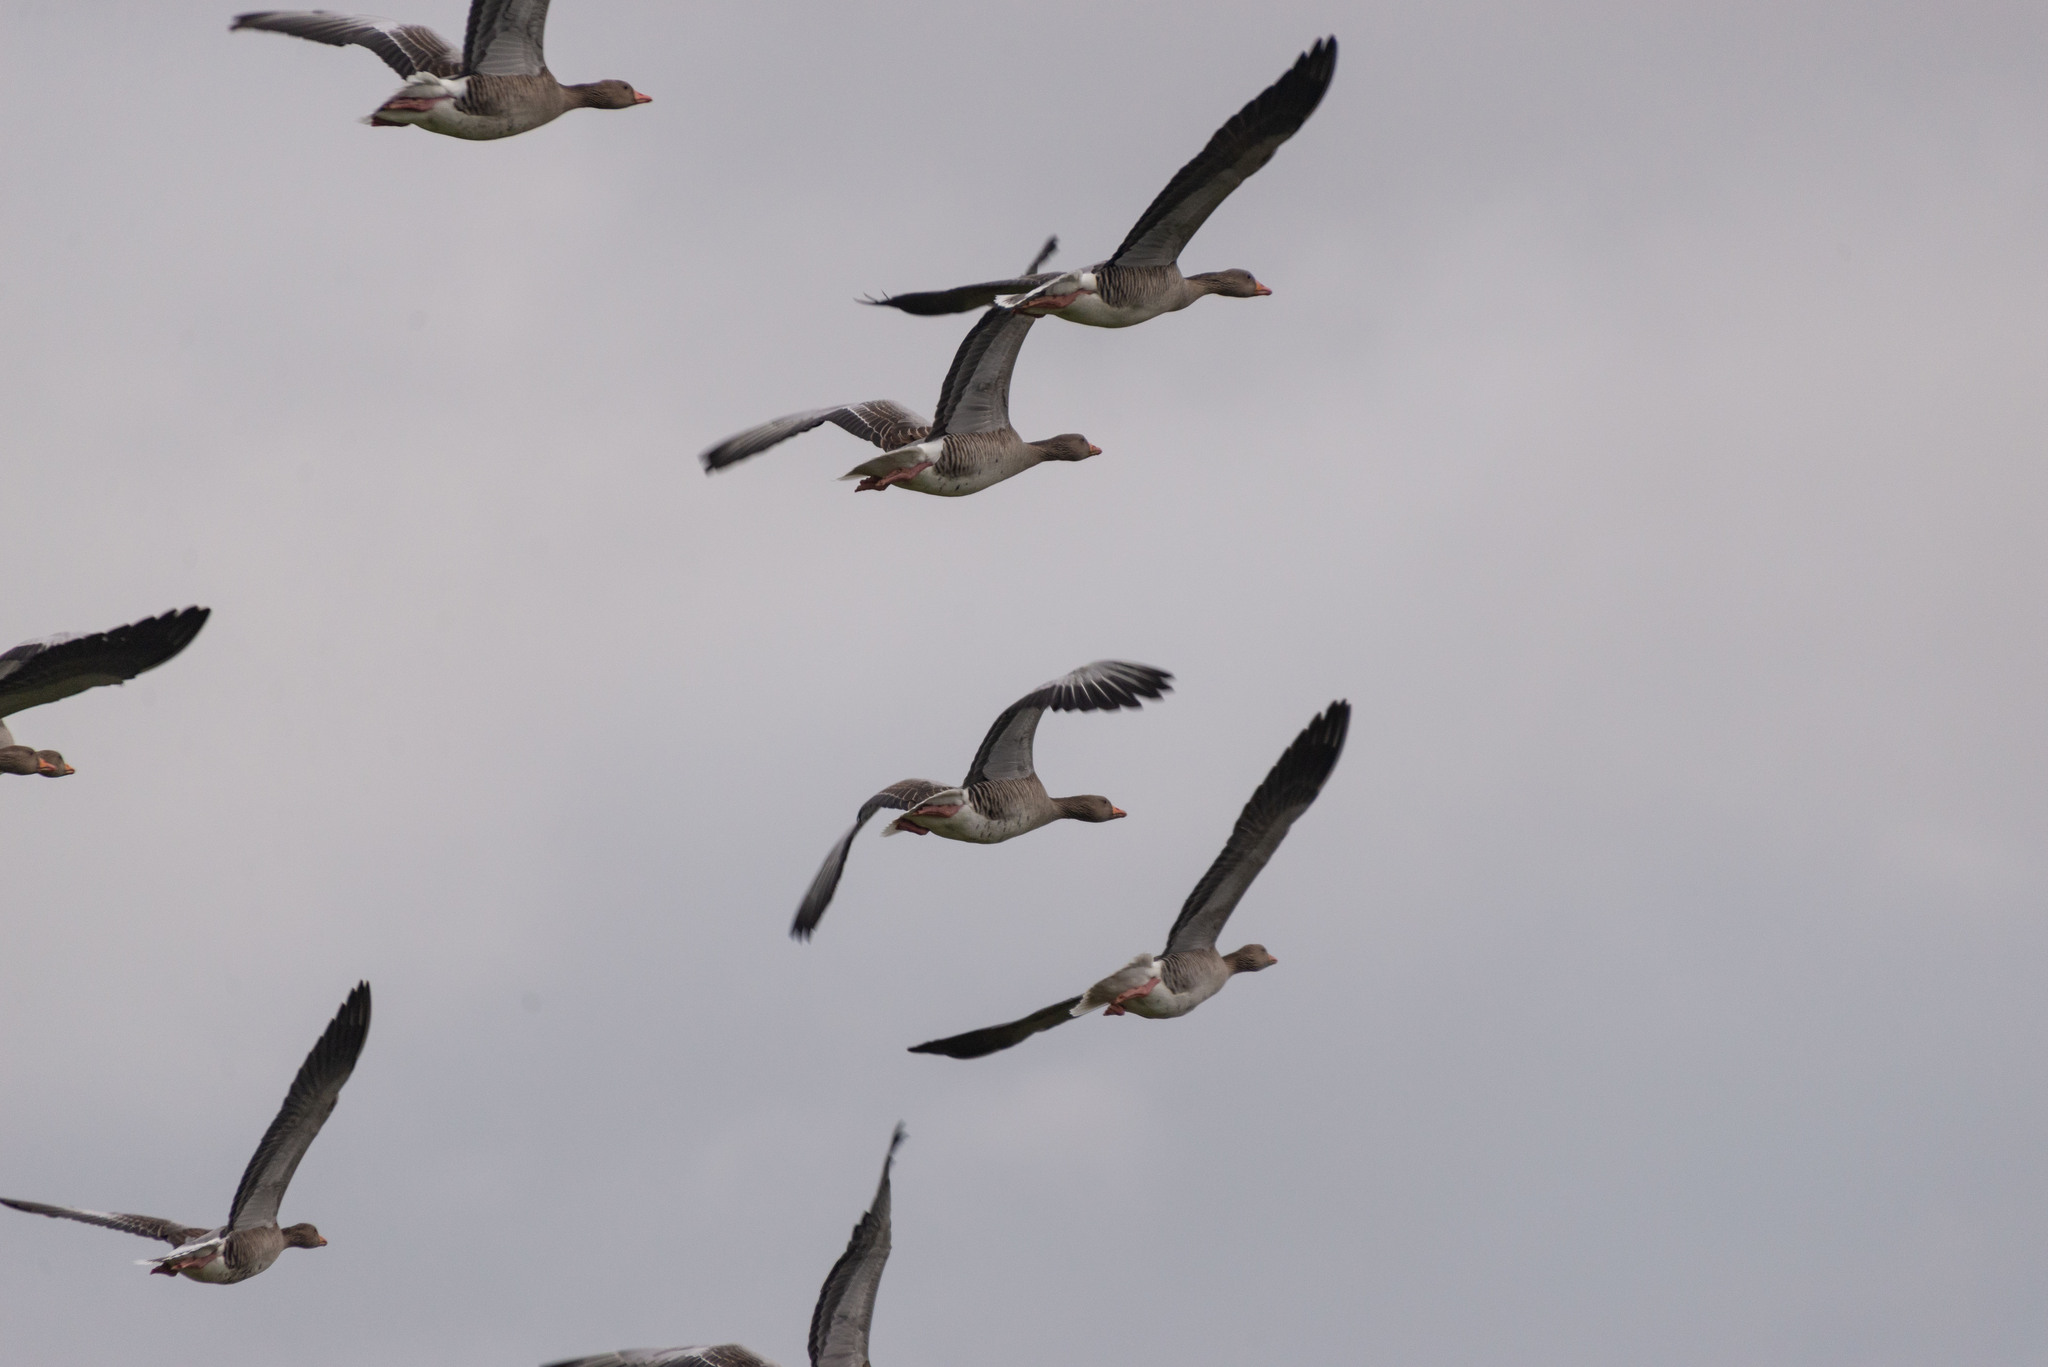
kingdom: Animalia
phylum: Chordata
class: Aves
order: Anseriformes
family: Anatidae
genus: Anser
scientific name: Anser anser
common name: Greylag goose
